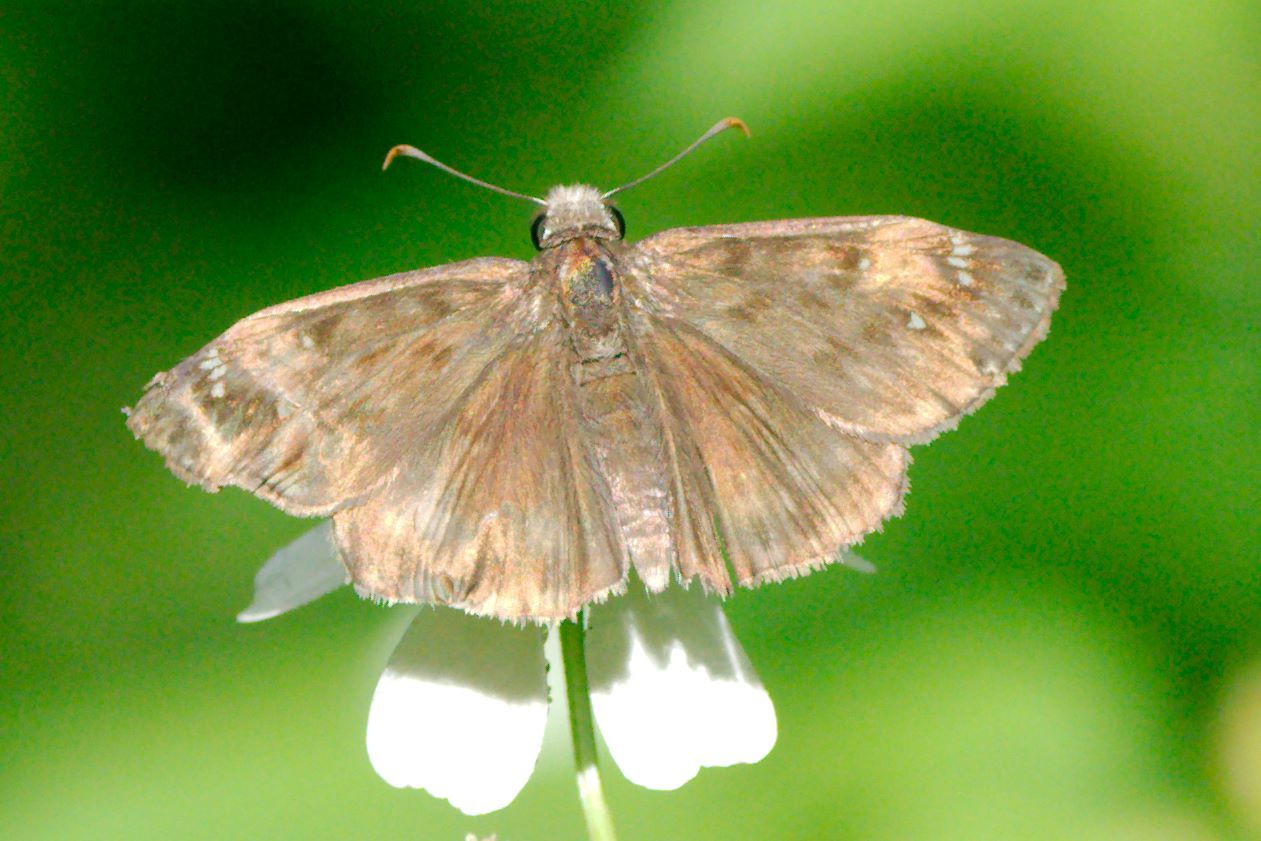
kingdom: Animalia
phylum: Arthropoda
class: Insecta
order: Lepidoptera
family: Hesperiidae
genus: Erynnis
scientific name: Erynnis horatius
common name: Horace's duskywing
